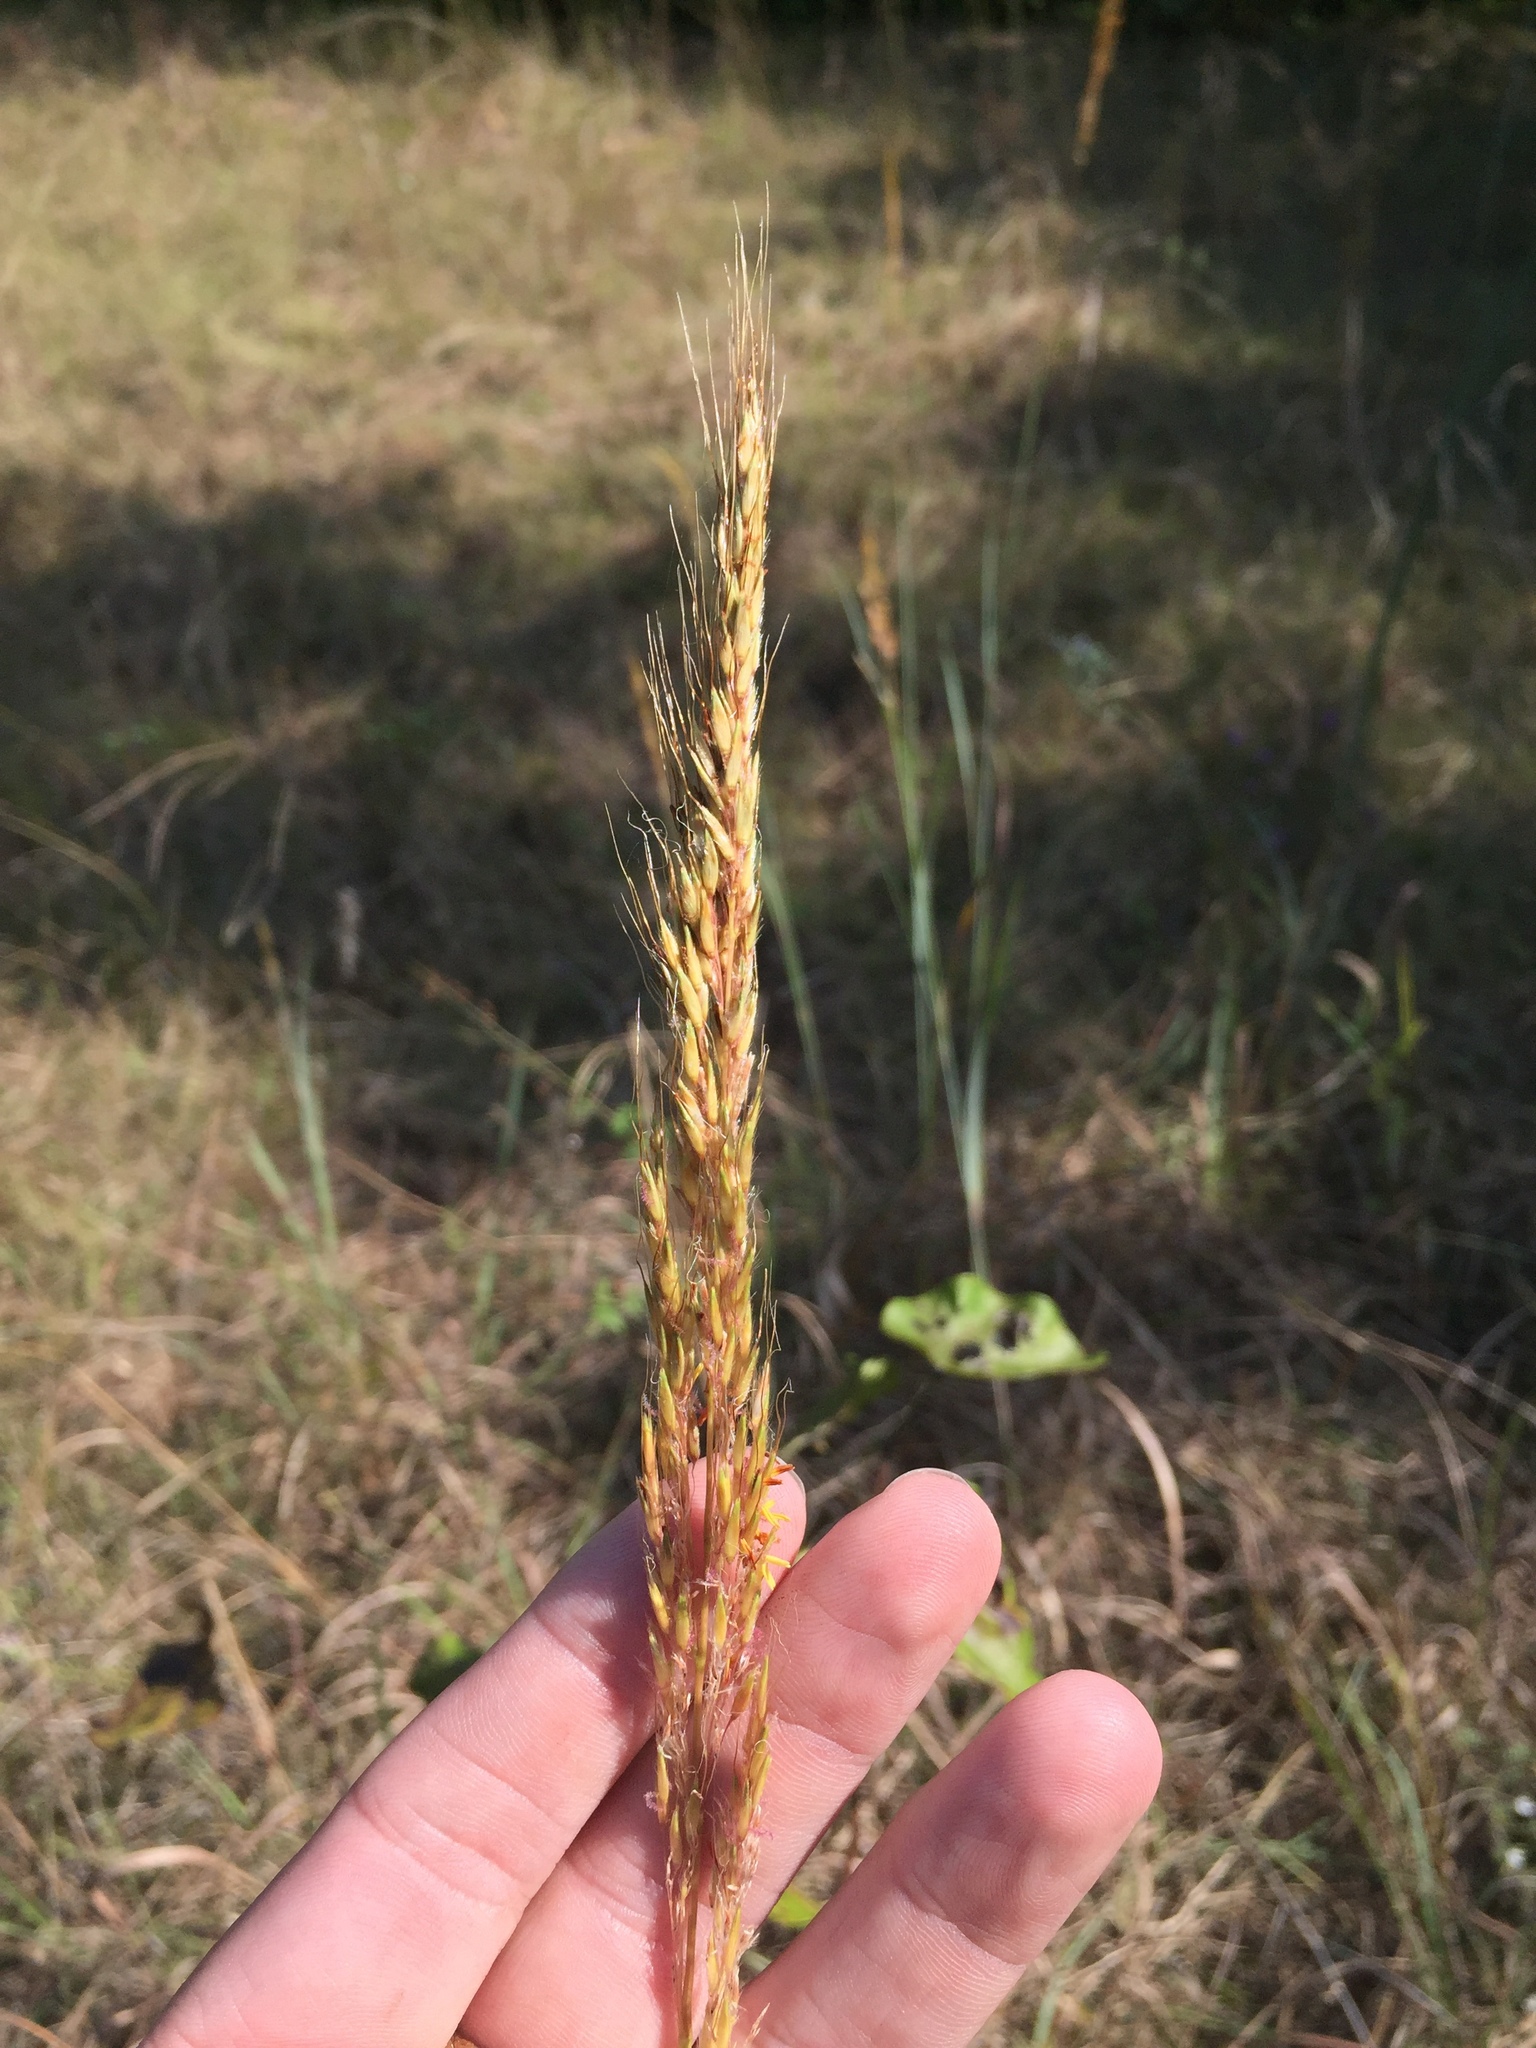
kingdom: Plantae
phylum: Tracheophyta
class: Liliopsida
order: Poales
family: Poaceae
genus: Sorghastrum
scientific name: Sorghastrum nutans
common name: Indian grass
